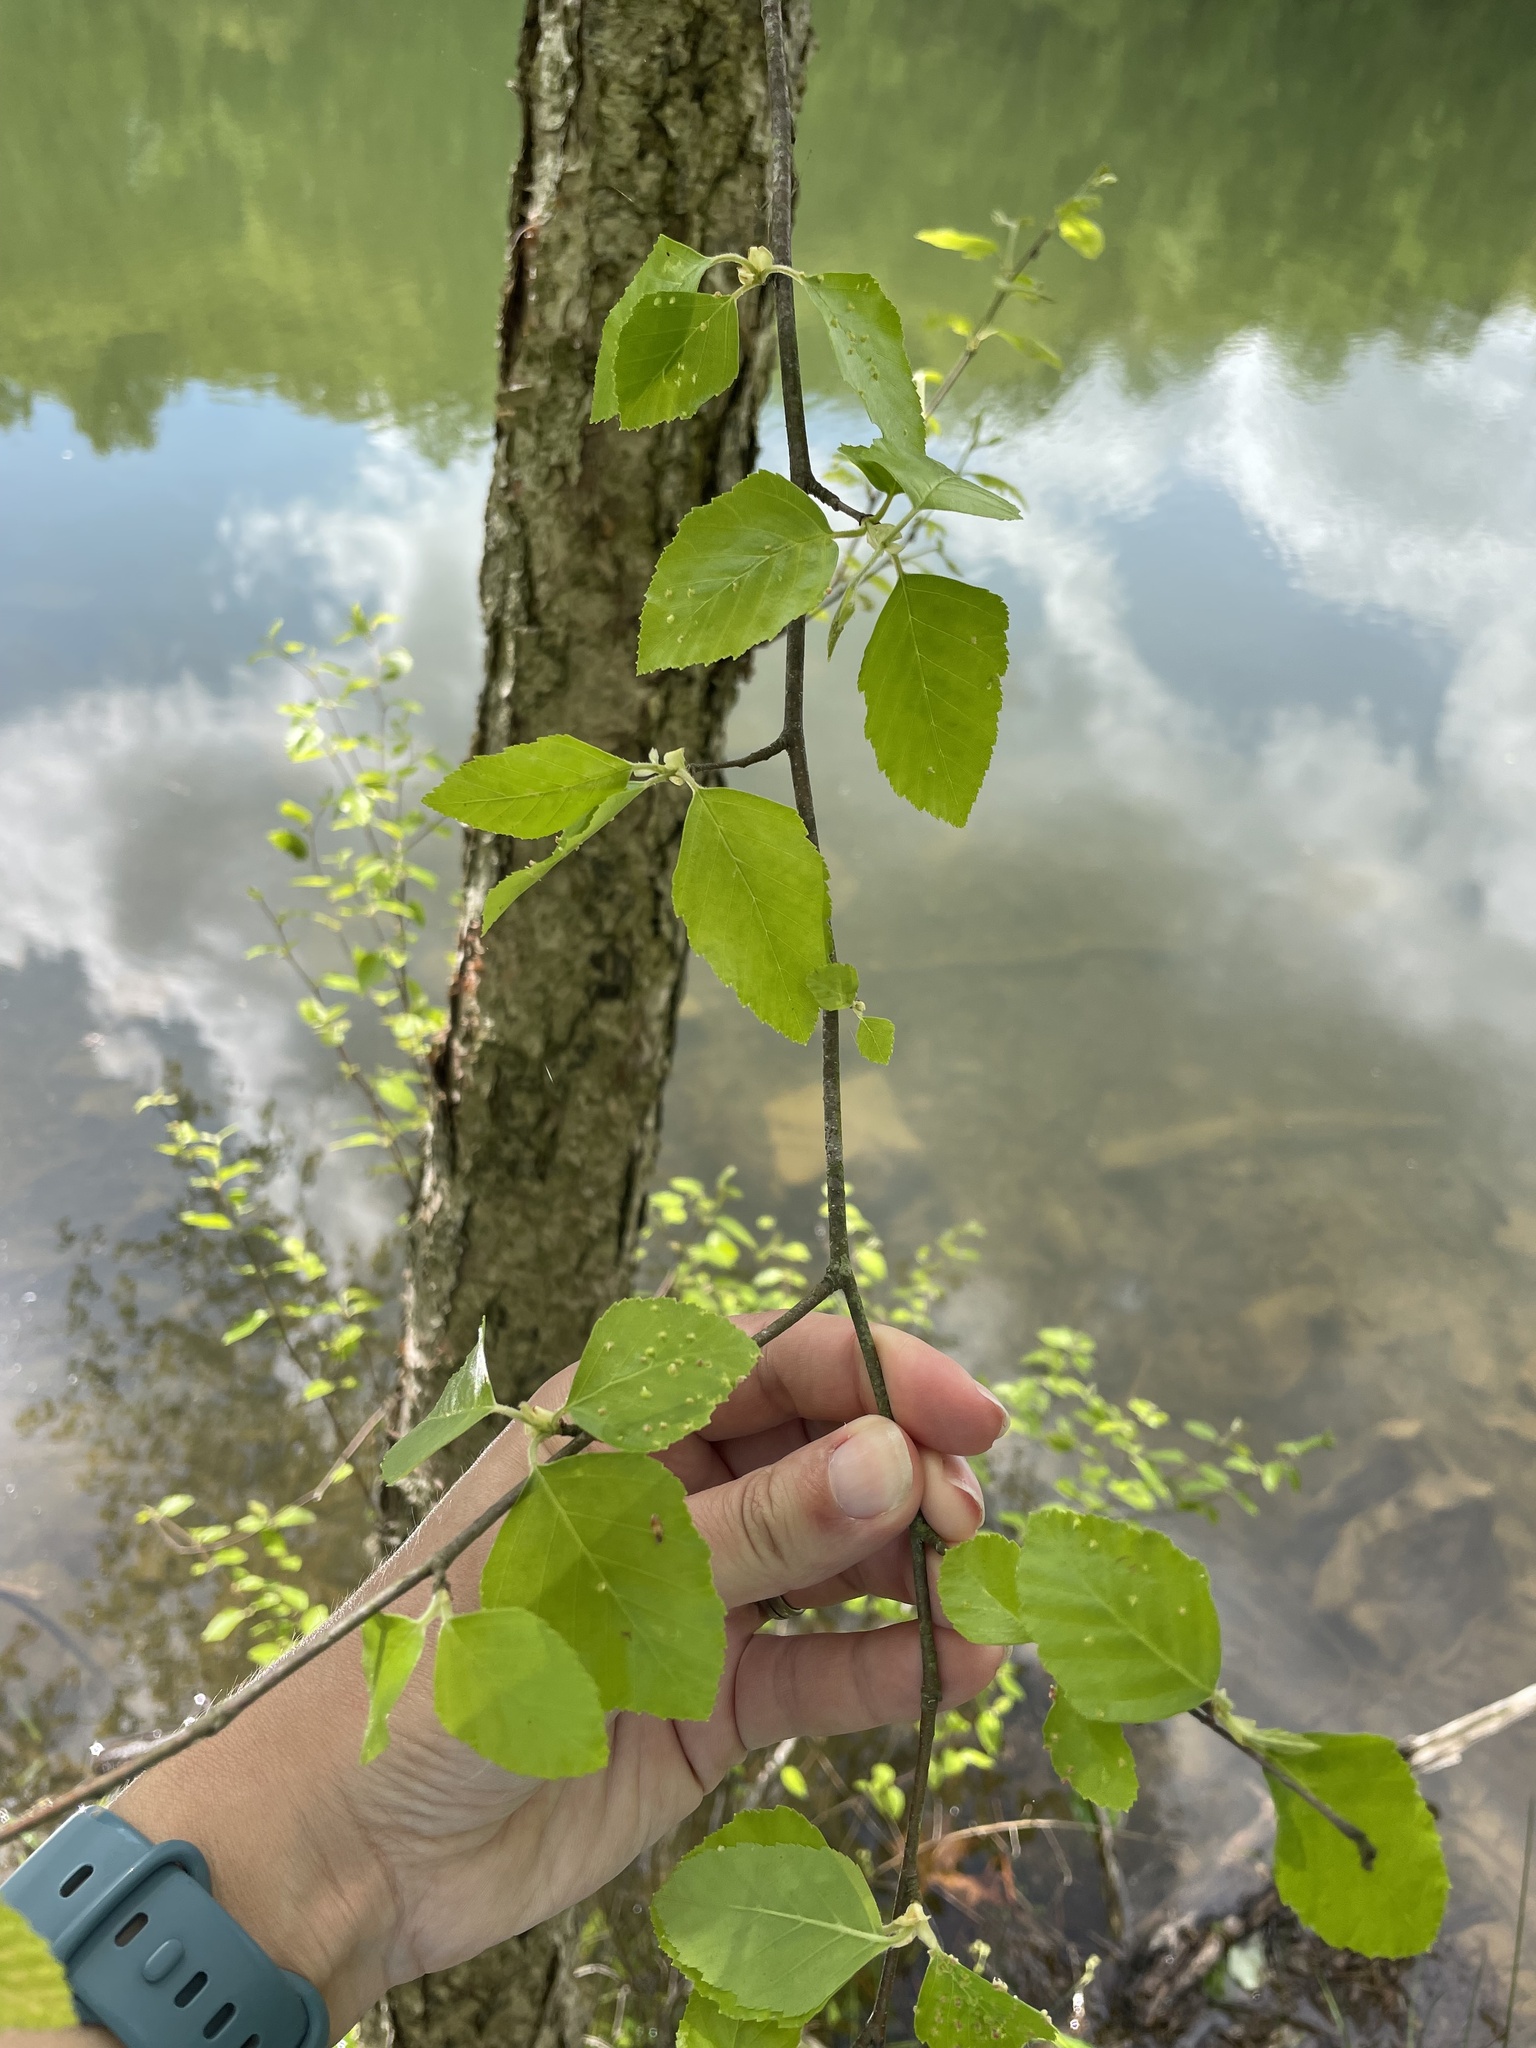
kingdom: Plantae
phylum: Tracheophyta
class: Magnoliopsida
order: Fagales
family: Betulaceae
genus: Betula
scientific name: Betula nigra
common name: Black birch
